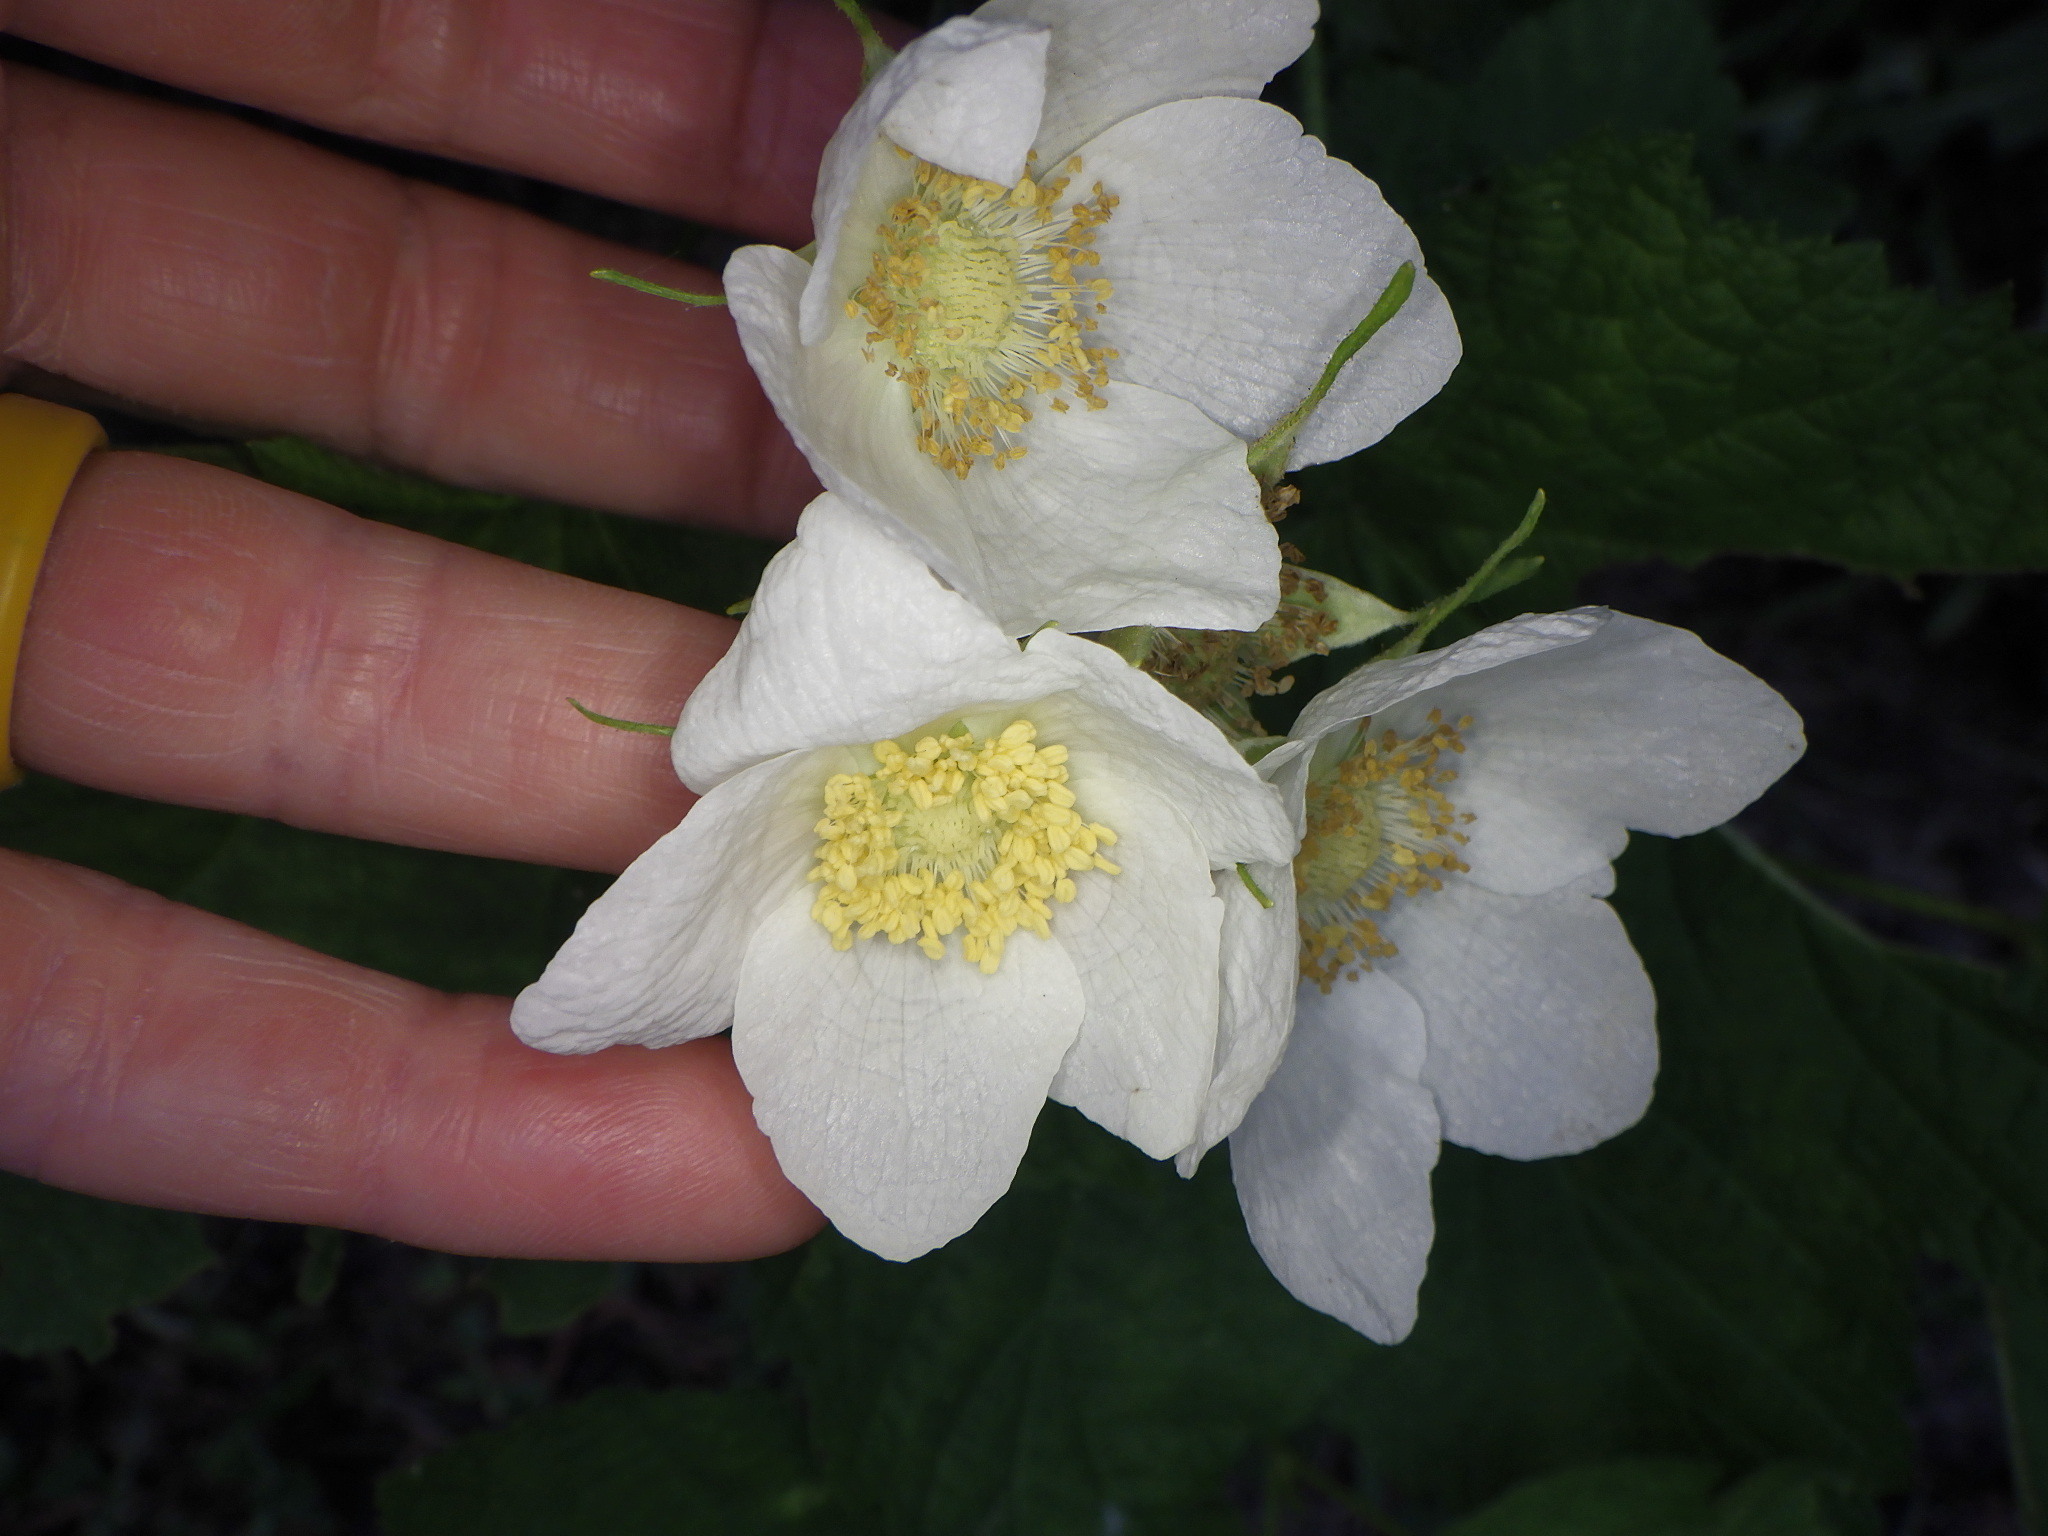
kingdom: Plantae
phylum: Tracheophyta
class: Magnoliopsida
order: Rosales
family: Rosaceae
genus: Rubus
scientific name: Rubus parviflorus
